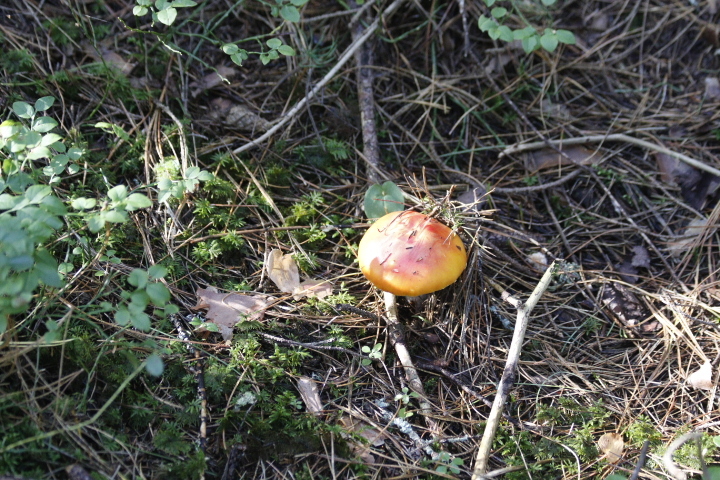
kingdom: Fungi
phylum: Basidiomycota
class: Agaricomycetes
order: Agaricales
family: Amanitaceae
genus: Amanita
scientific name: Amanita muscaria
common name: Fly agaric
